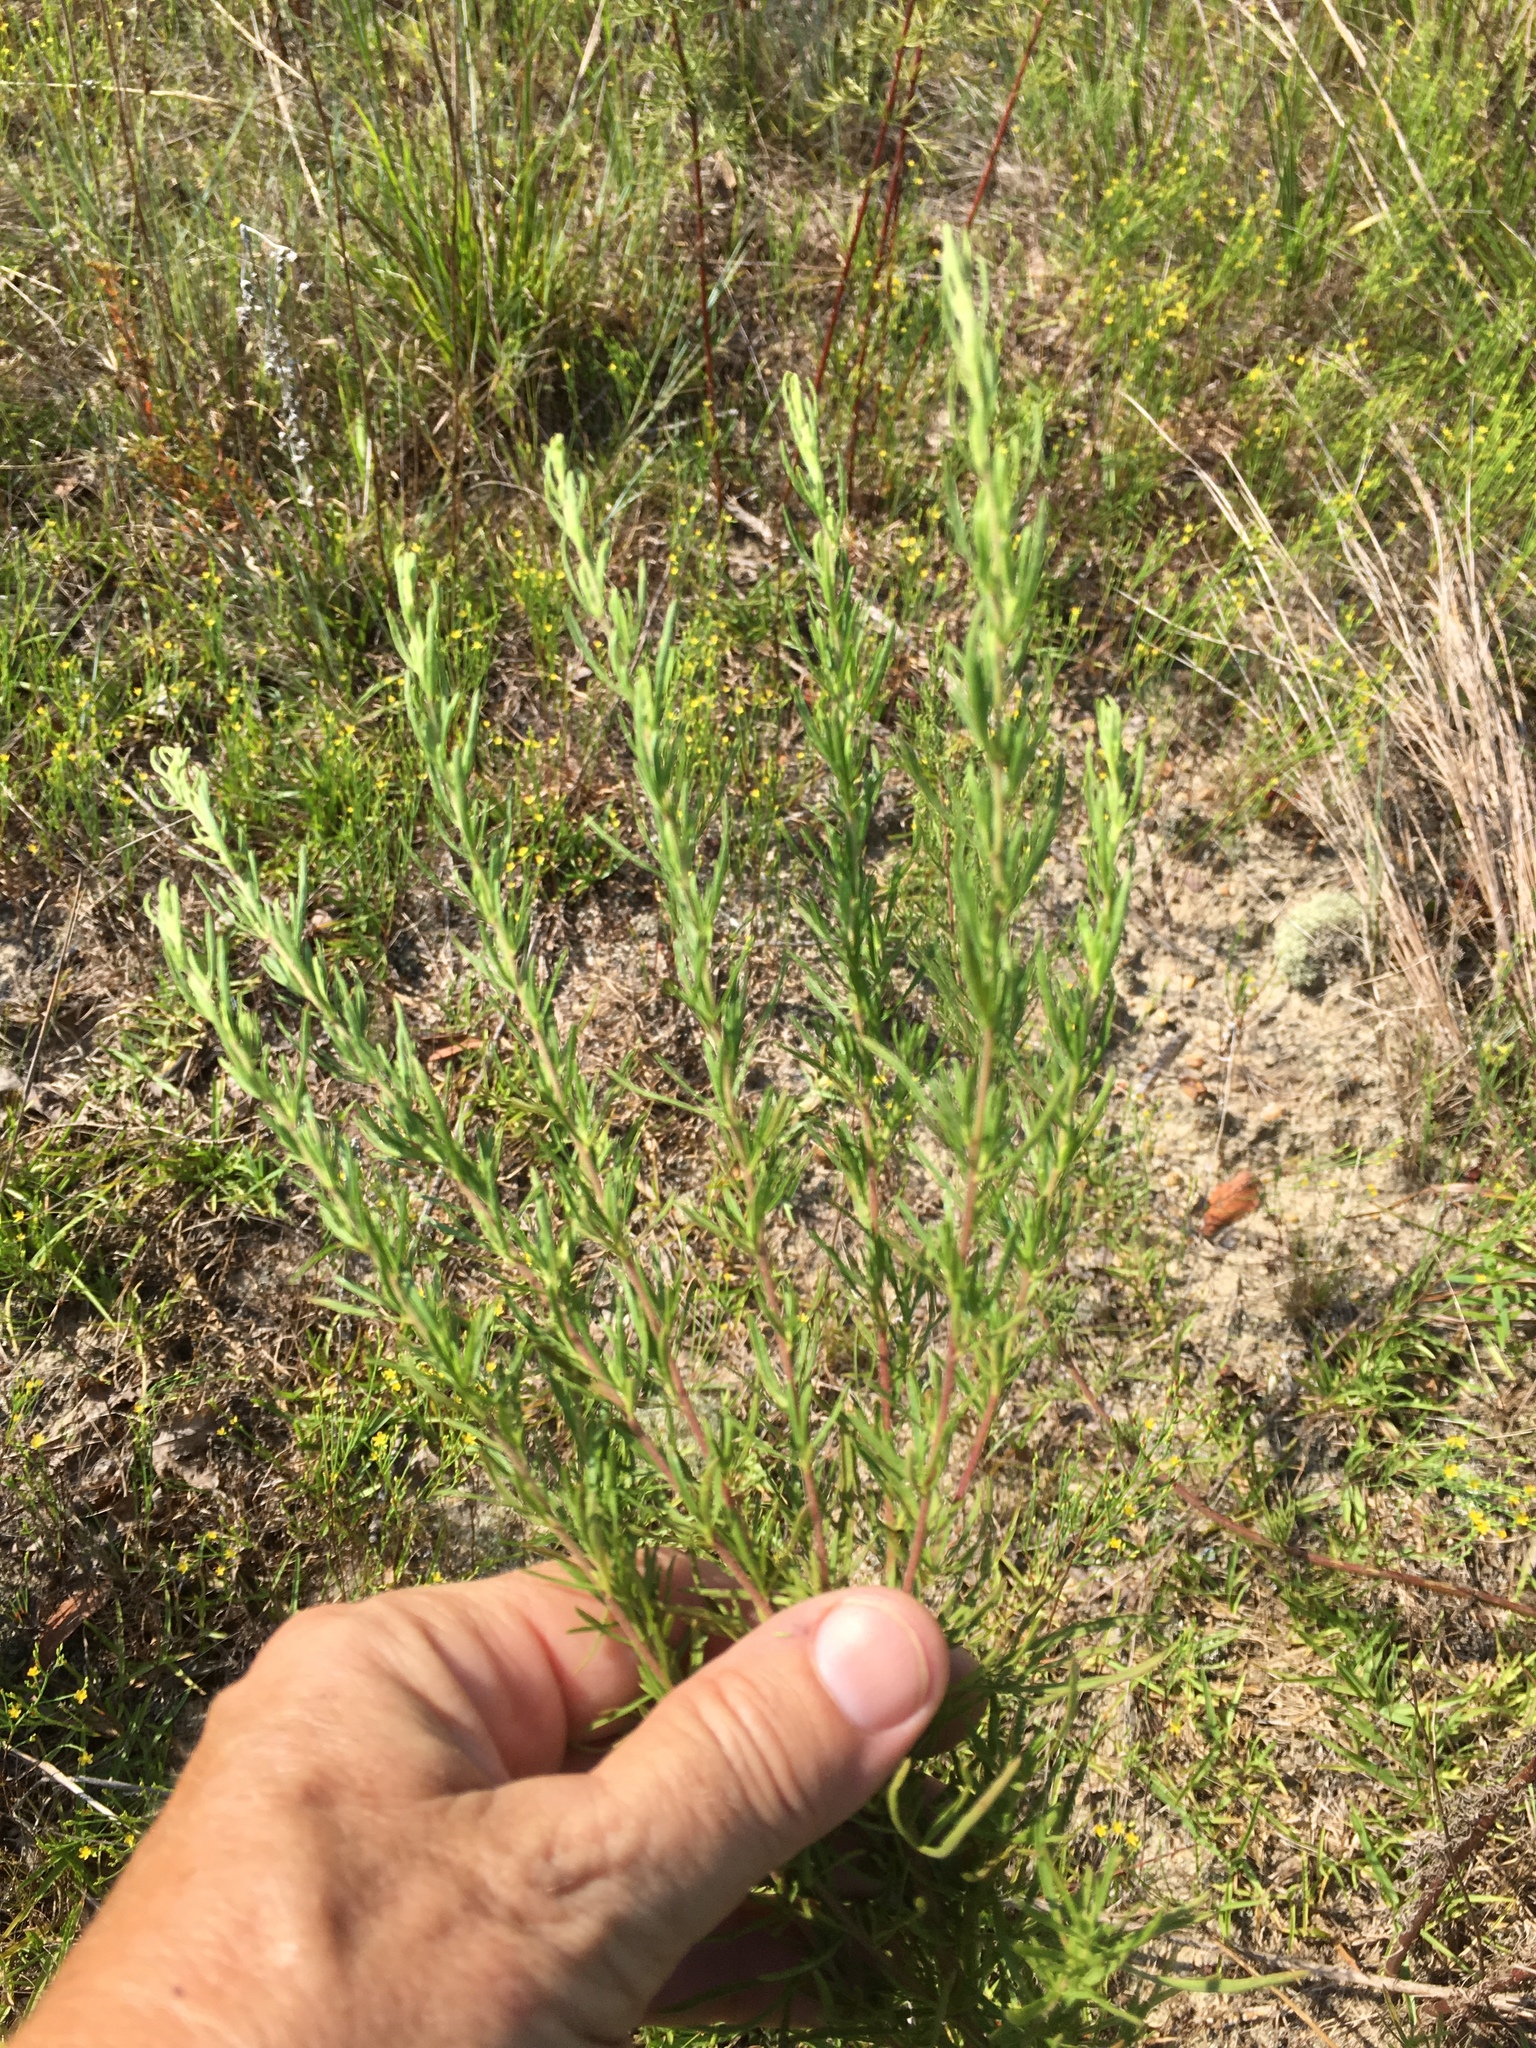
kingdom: Plantae
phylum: Tracheophyta
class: Magnoliopsida
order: Asterales
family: Asteraceae
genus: Eupatorium
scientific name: Eupatorium compositifolium
